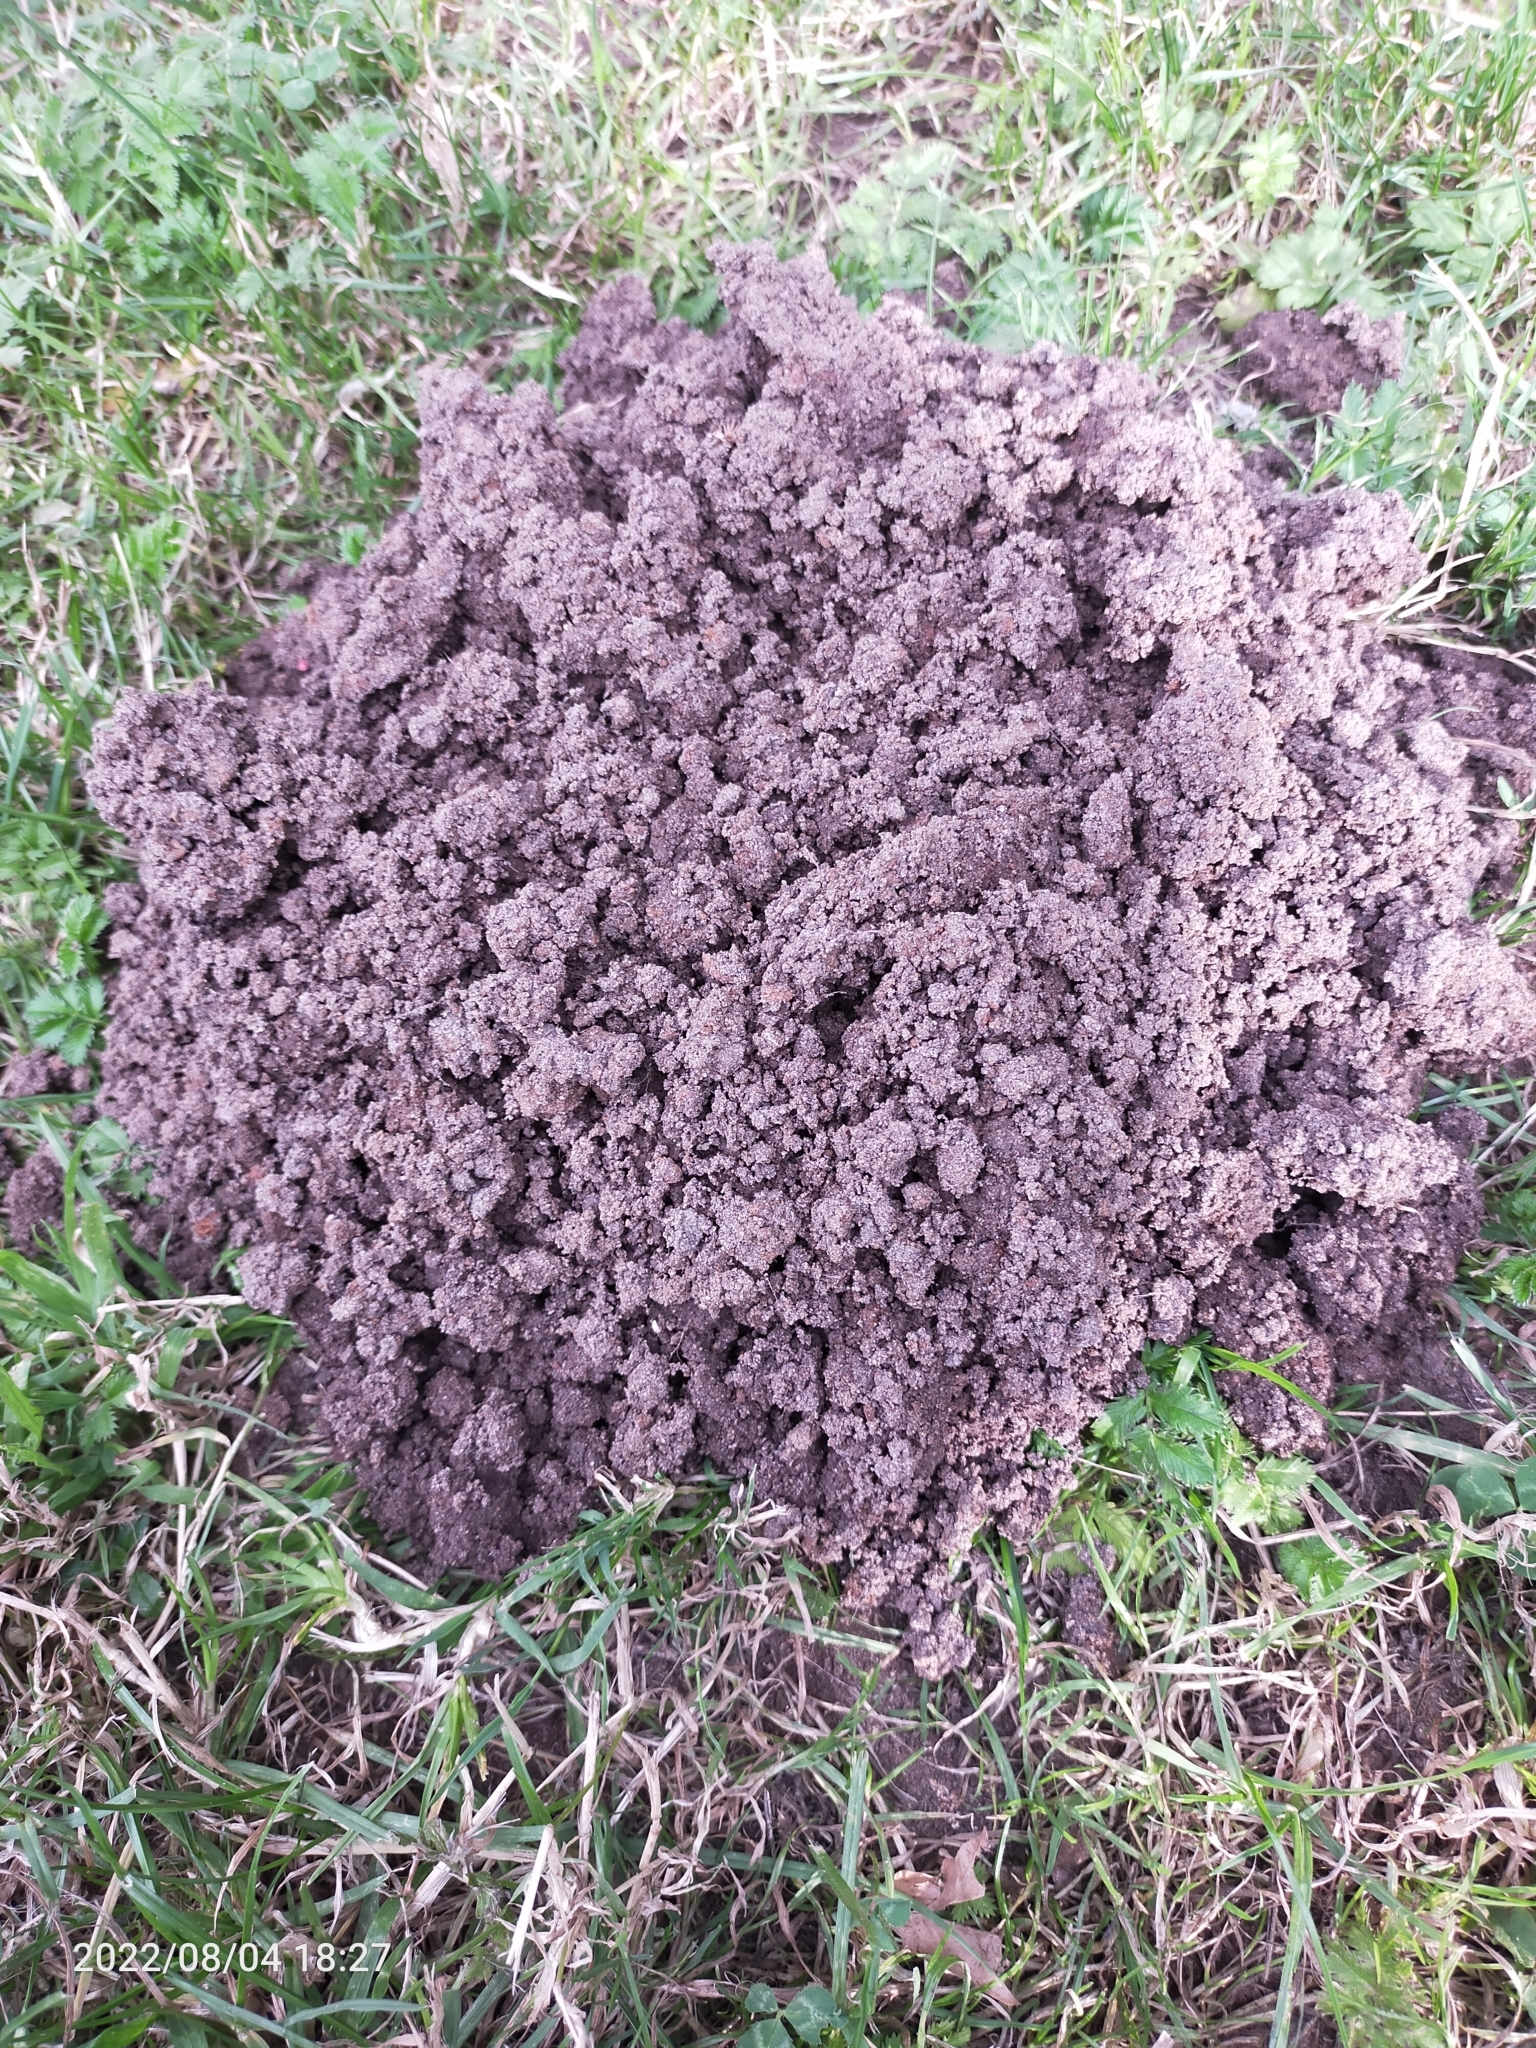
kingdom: Animalia
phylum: Chordata
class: Mammalia
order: Soricomorpha
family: Talpidae
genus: Talpa
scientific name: Talpa europaea
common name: European mole
